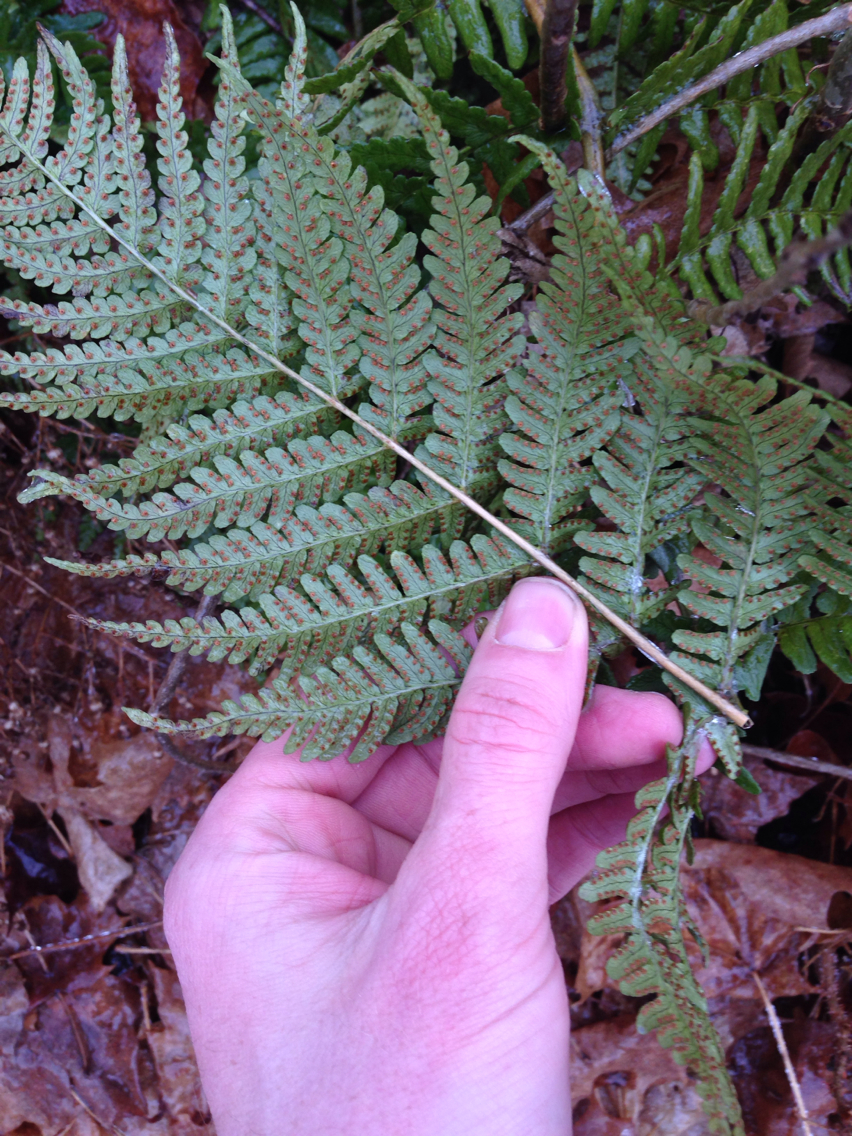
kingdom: Plantae
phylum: Tracheophyta
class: Polypodiopsida
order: Polypodiales
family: Dryopteridaceae
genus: Dryopteris
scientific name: Dryopteris marginalis
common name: Marginal wood fern
